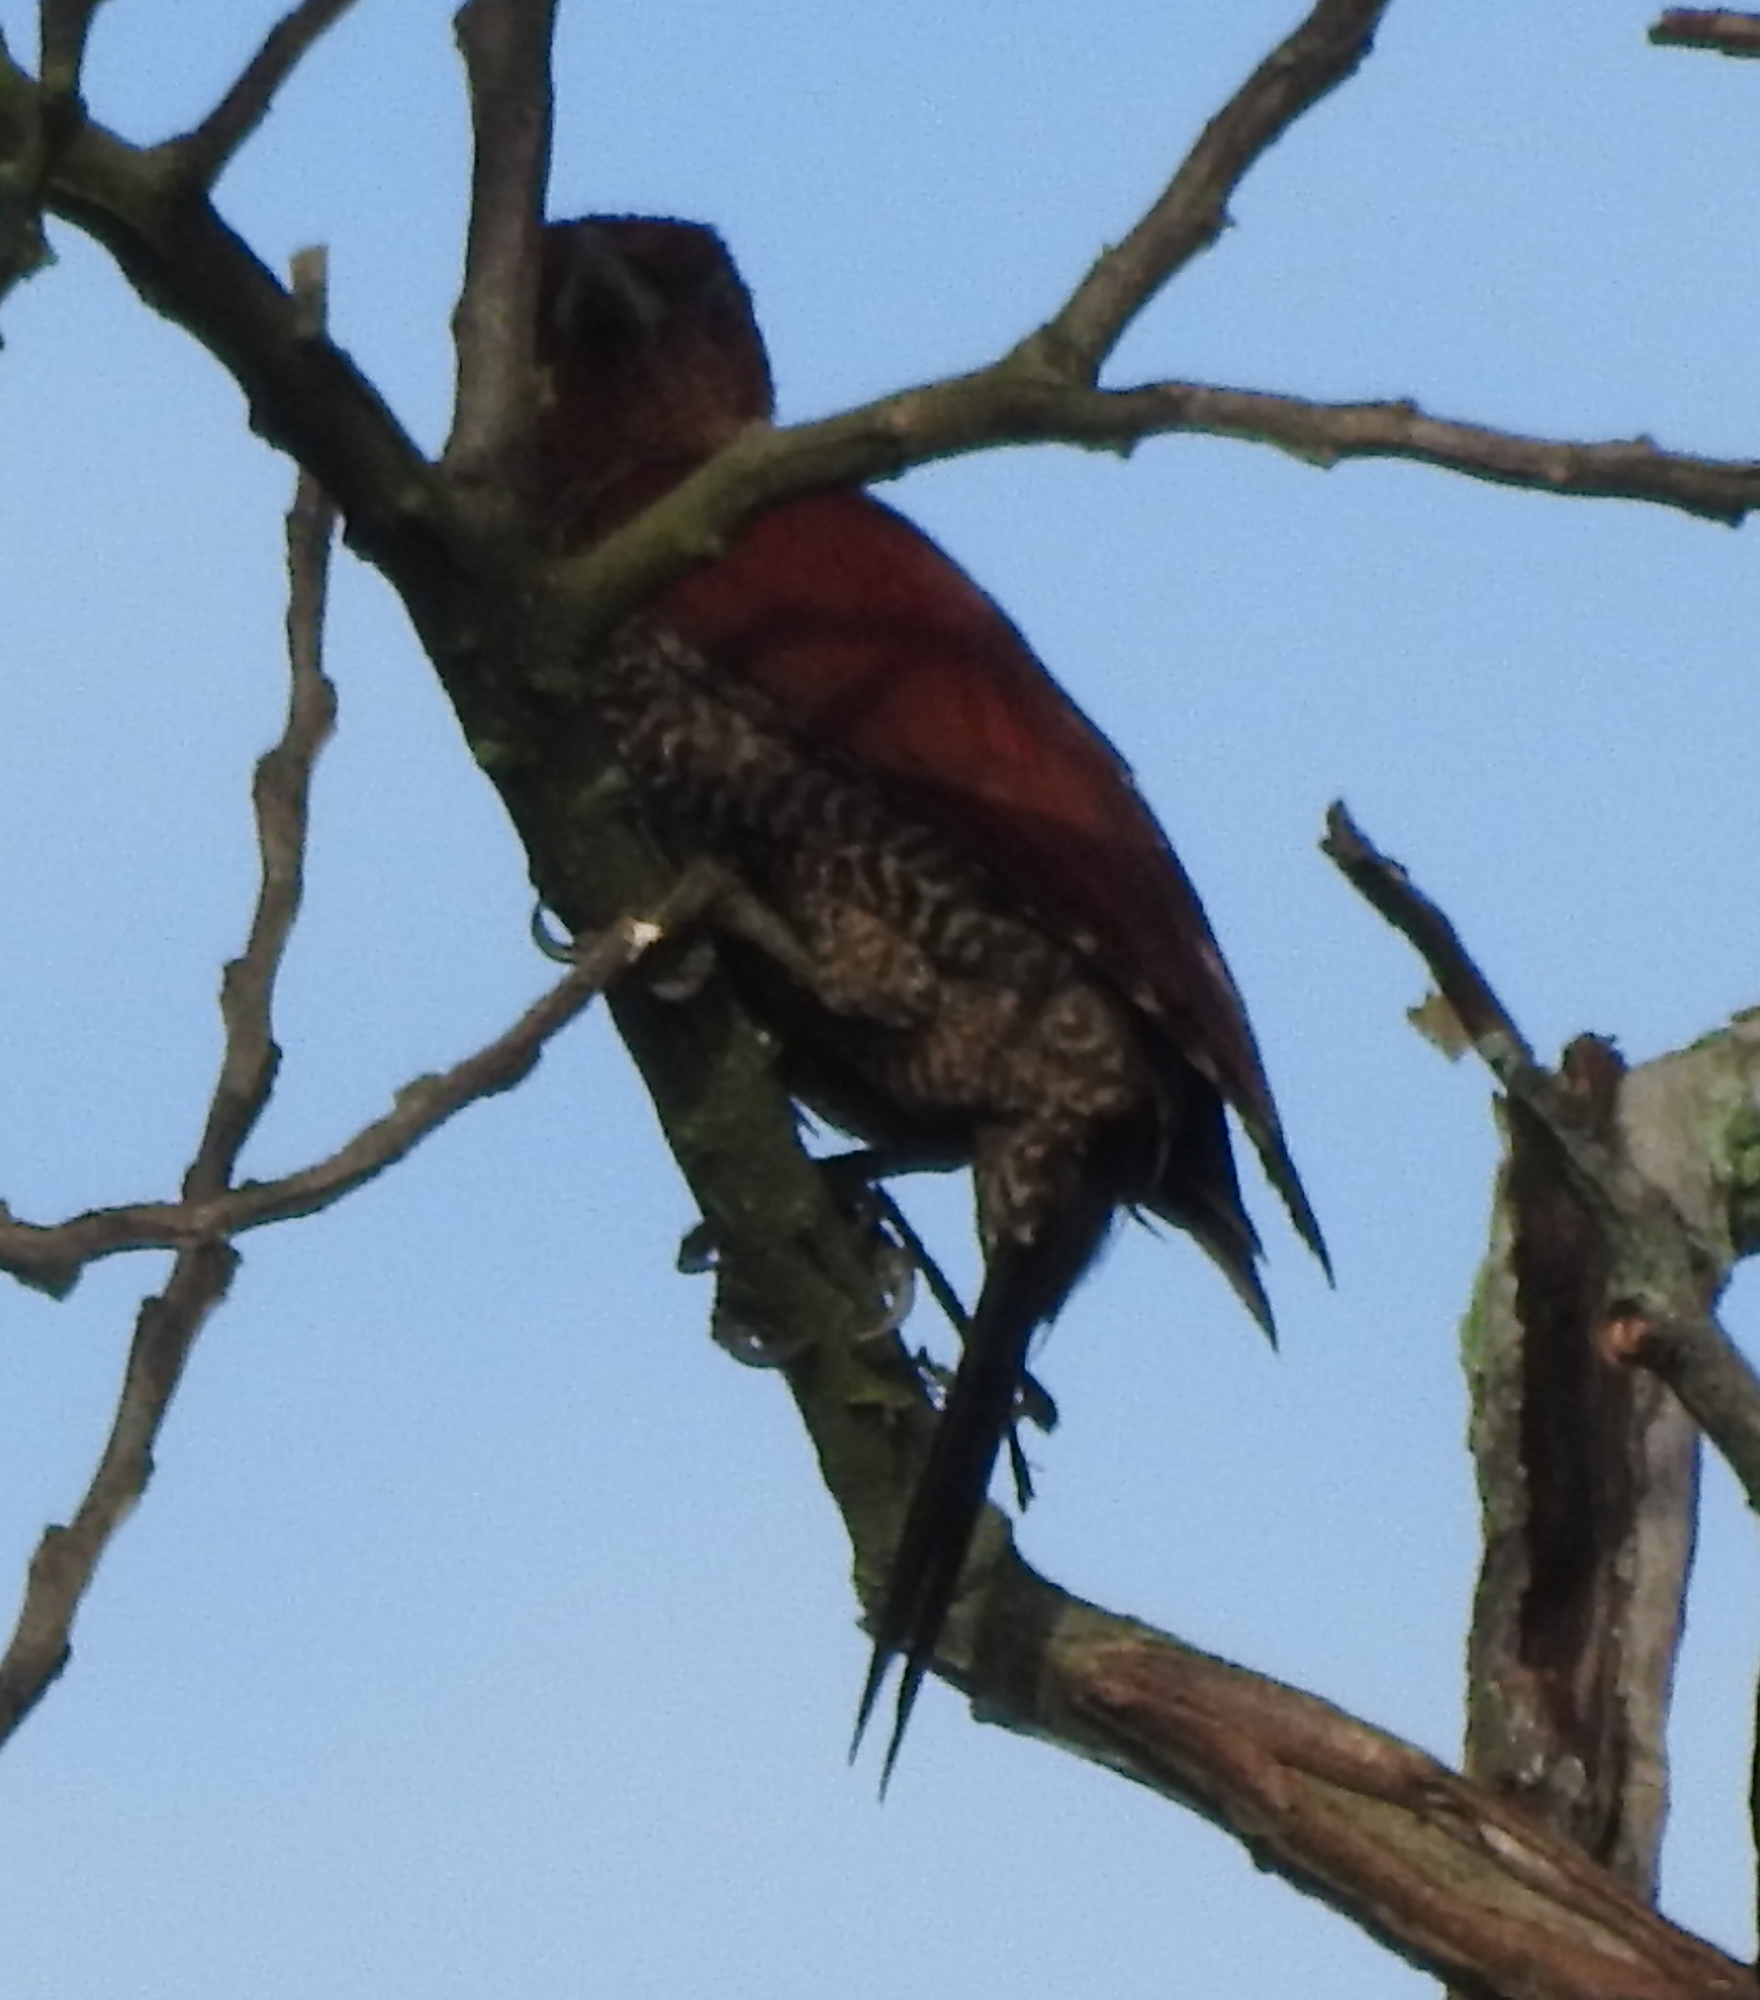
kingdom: Animalia
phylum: Chordata
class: Aves
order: Piciformes
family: Picidae
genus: Chrysophlegma
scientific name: Chrysophlegma miniaceum
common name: Banded woodpecker
